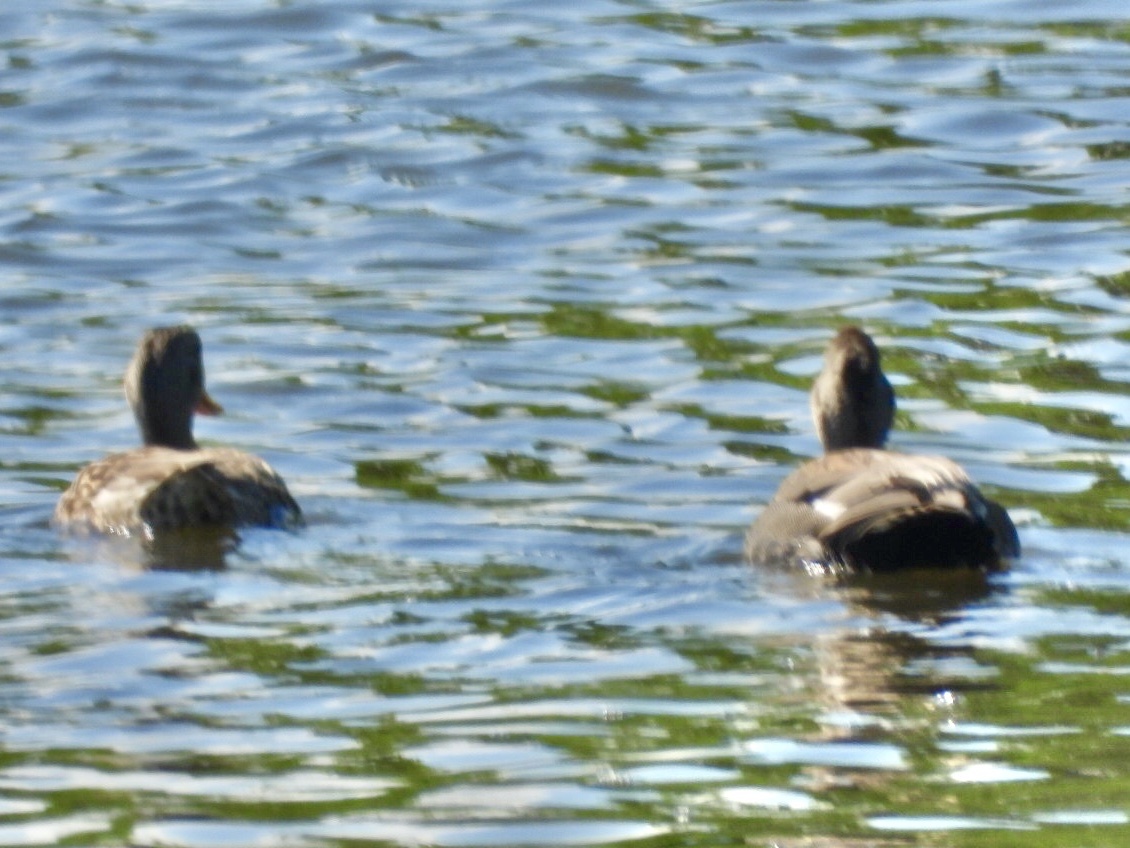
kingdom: Animalia
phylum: Chordata
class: Aves
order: Anseriformes
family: Anatidae
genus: Mareca
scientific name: Mareca strepera
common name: Gadwall
